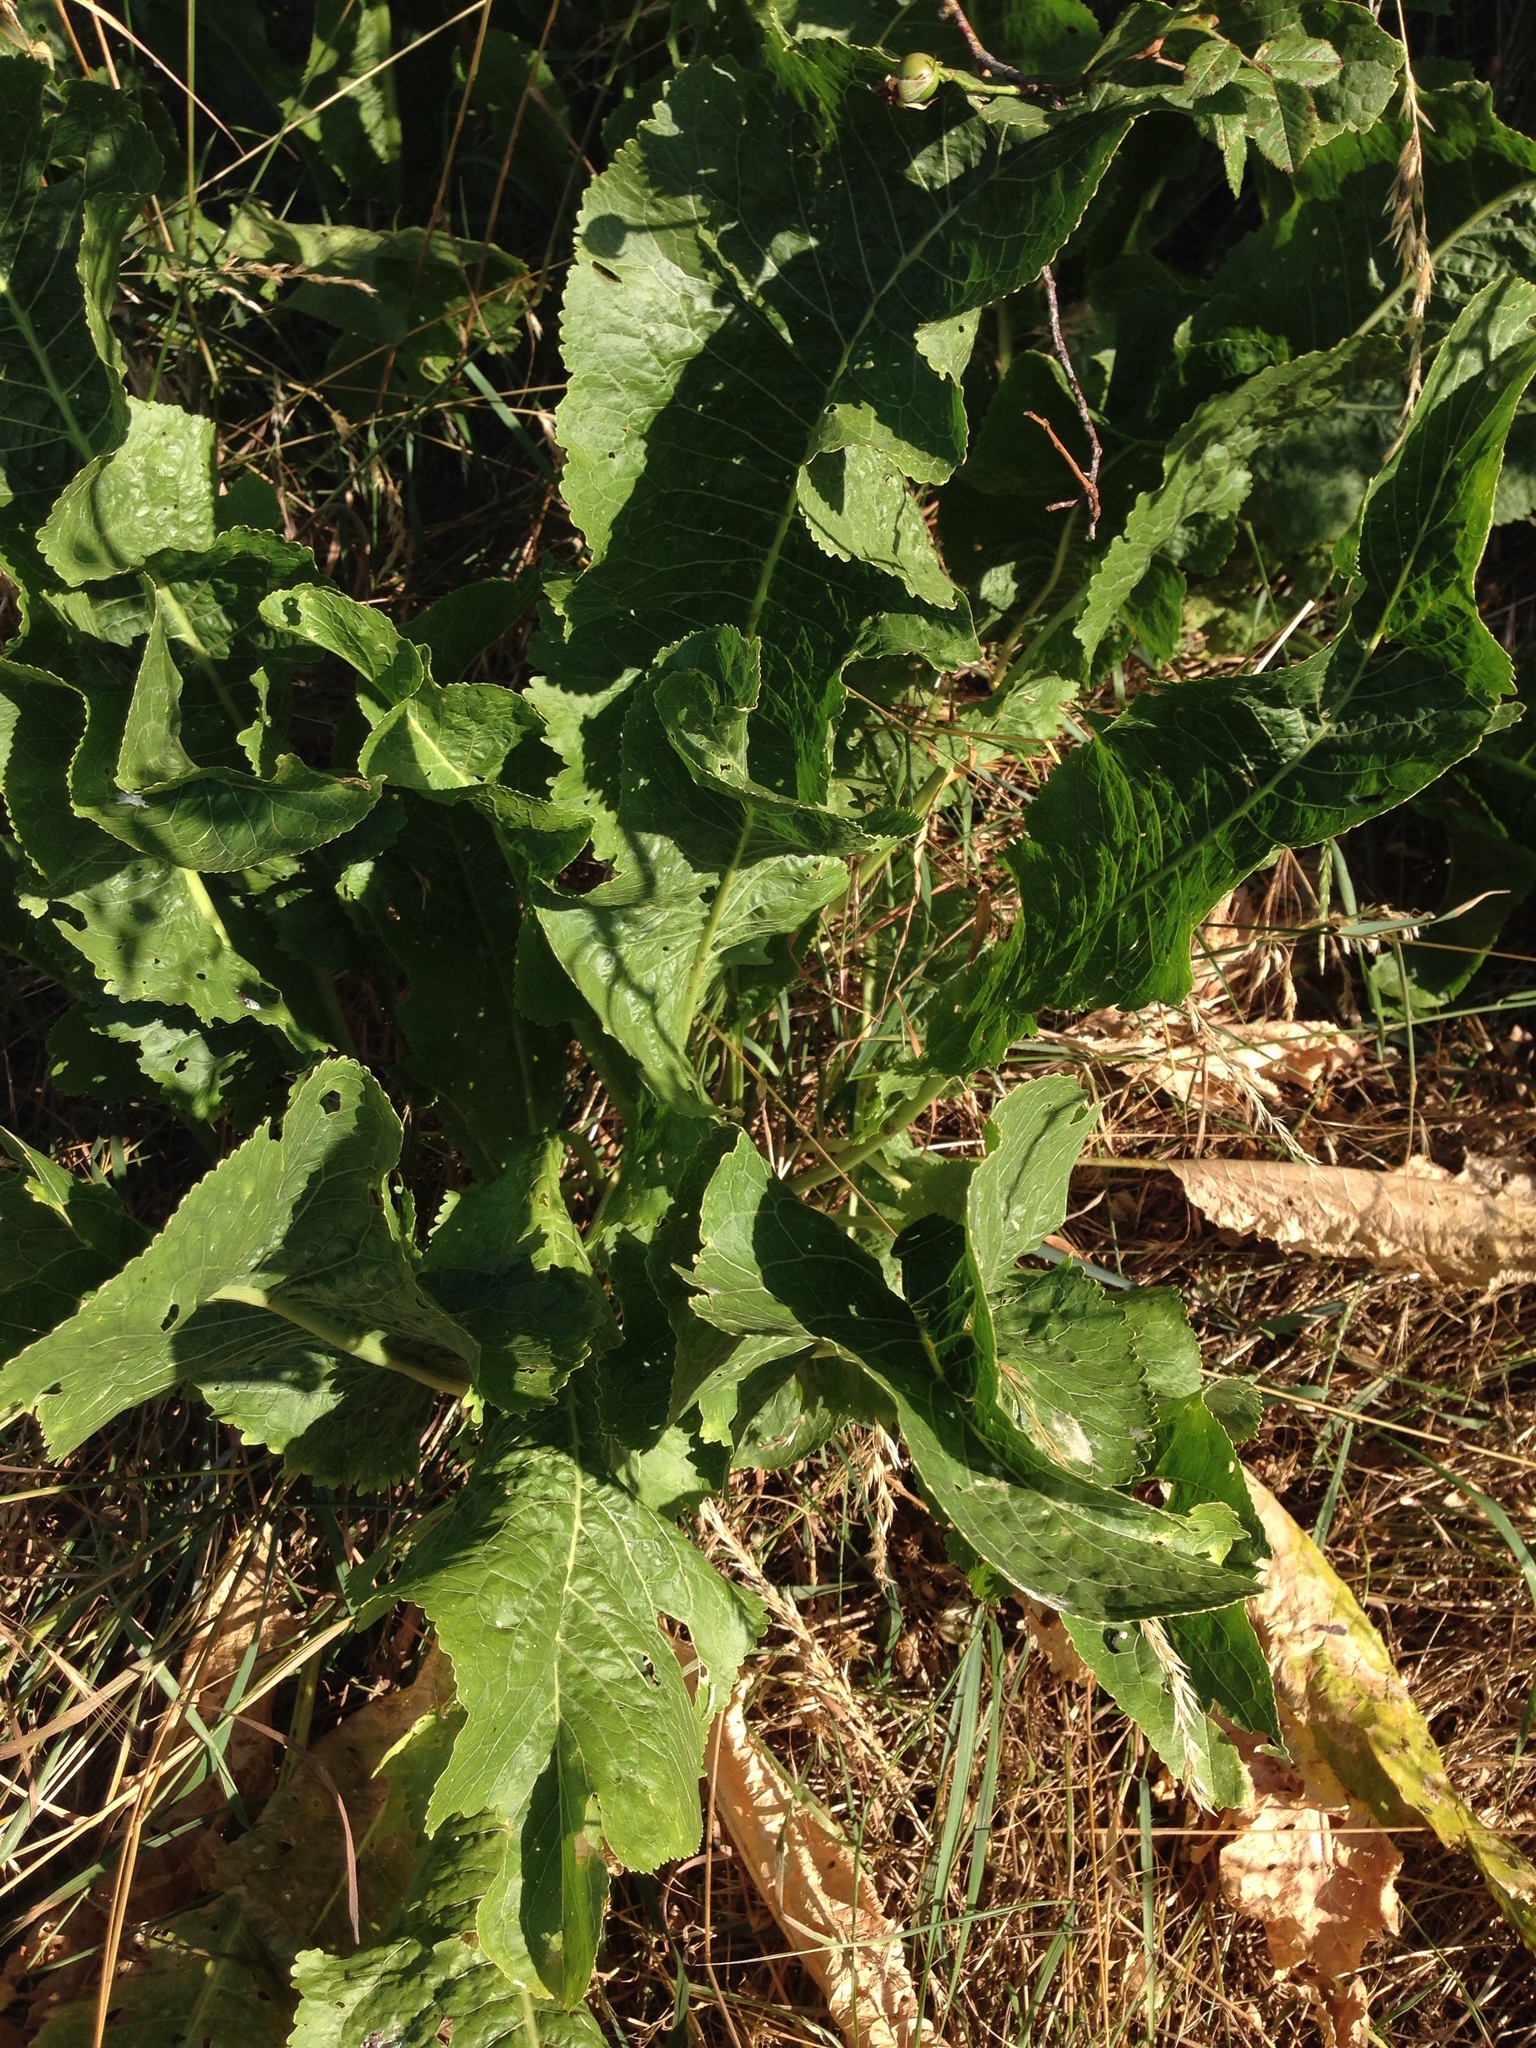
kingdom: Plantae
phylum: Tracheophyta
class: Magnoliopsida
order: Brassicales
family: Brassicaceae
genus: Armoracia
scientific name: Armoracia rusticana
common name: Horseradish
